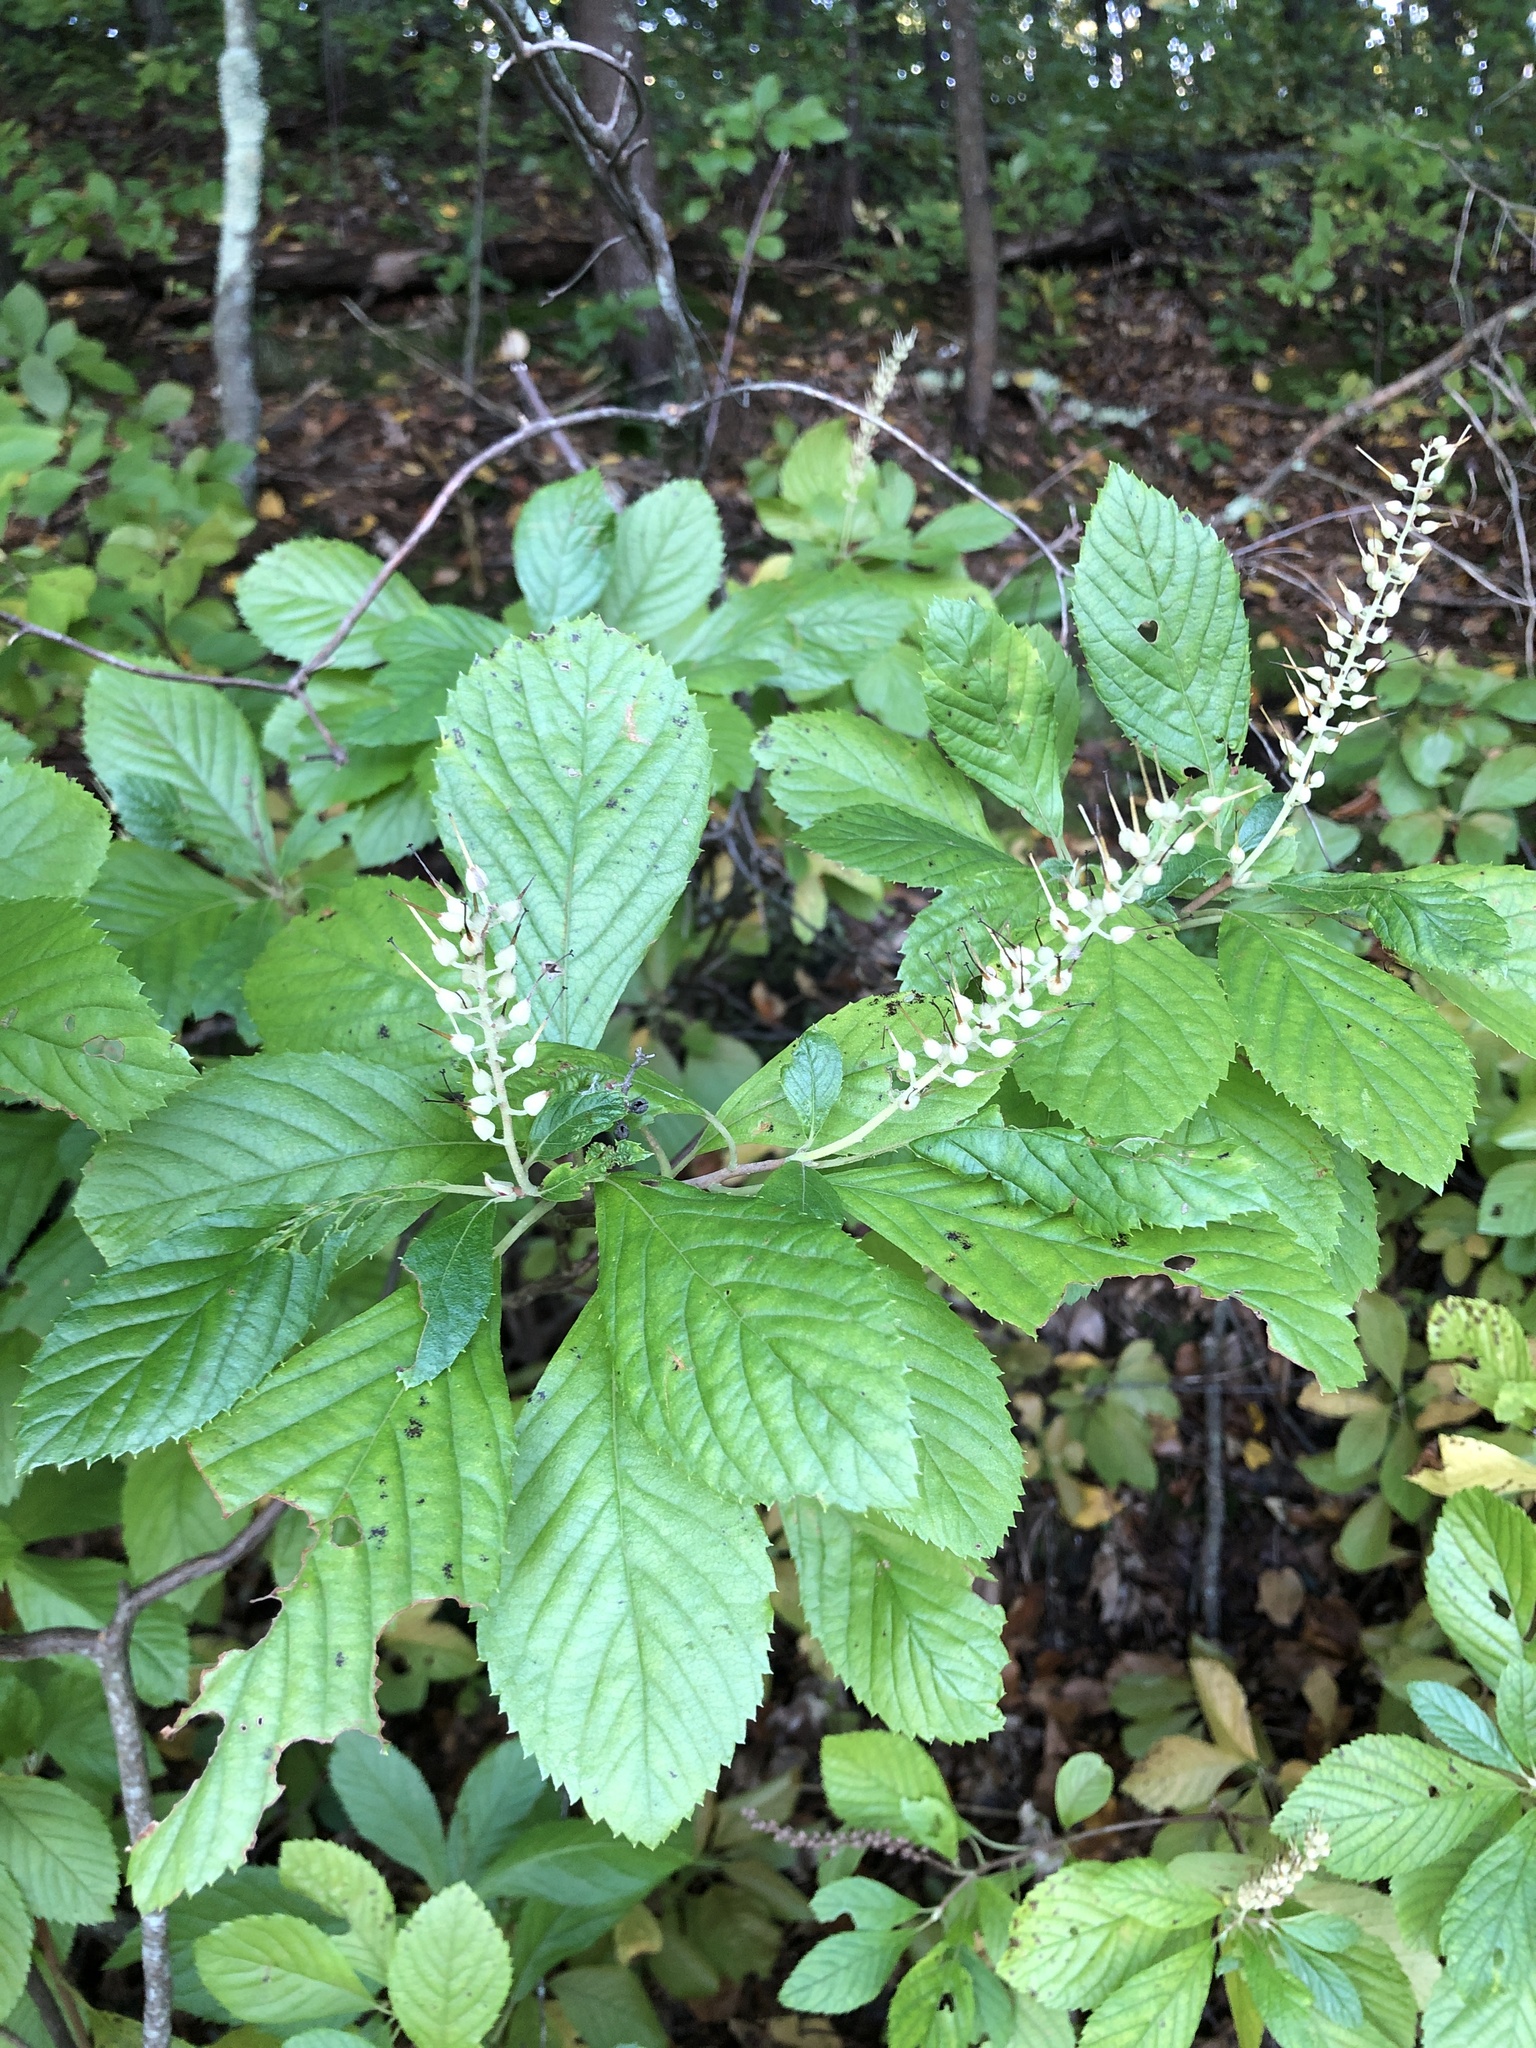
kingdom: Plantae
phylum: Tracheophyta
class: Magnoliopsida
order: Ericales
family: Clethraceae
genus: Clethra
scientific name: Clethra alnifolia
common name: Sweet pepperbush
